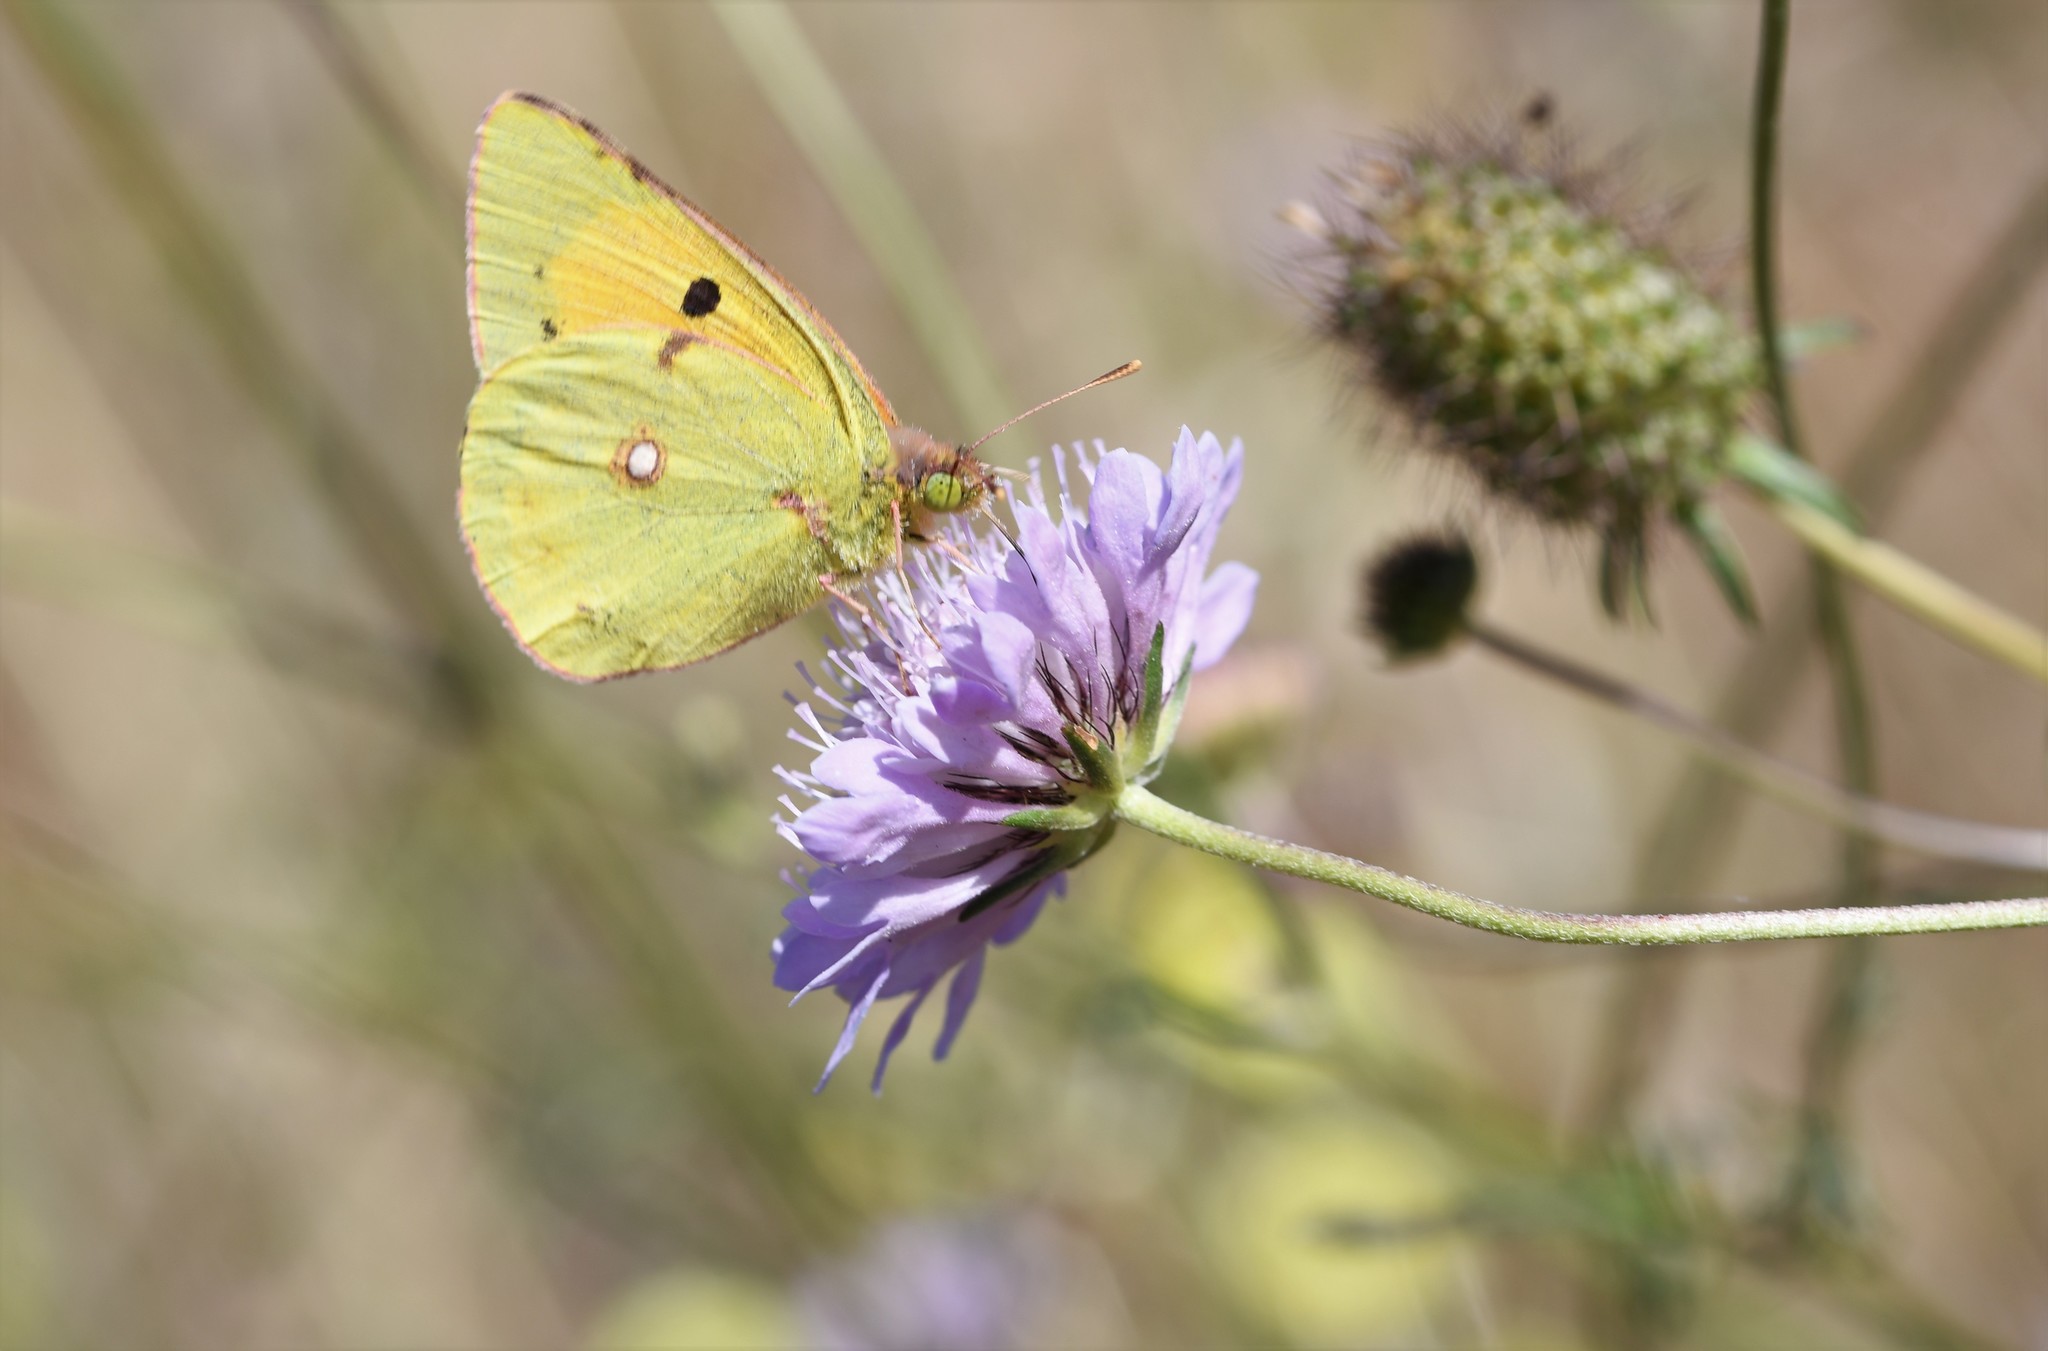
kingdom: Animalia
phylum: Arthropoda
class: Insecta
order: Lepidoptera
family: Pieridae
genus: Colias
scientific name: Colias croceus
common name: Clouded yellow
